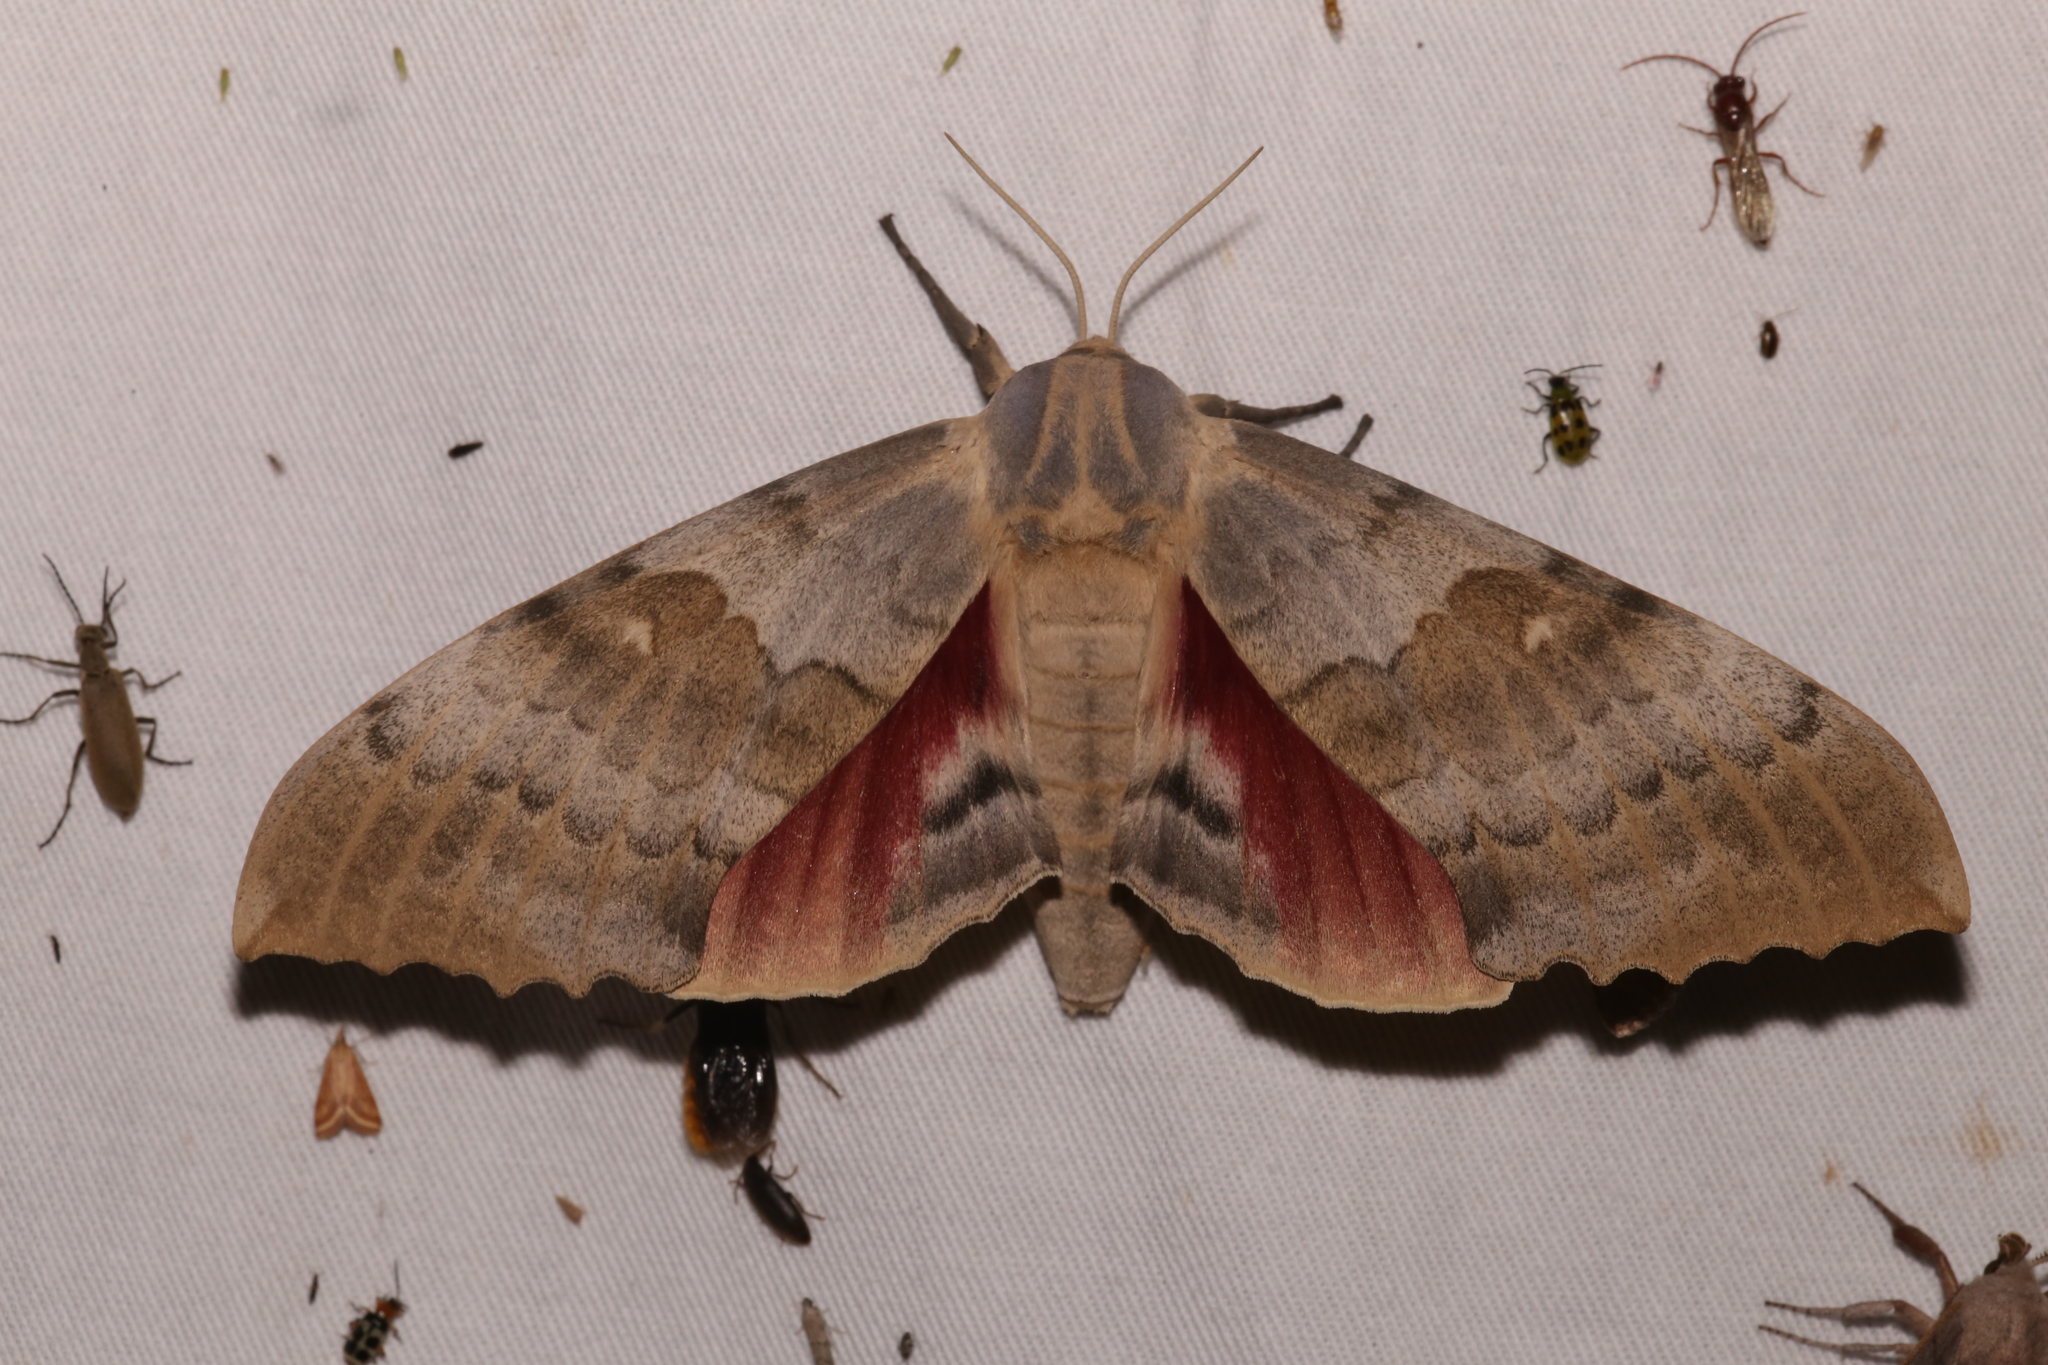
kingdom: Animalia
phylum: Arthropoda
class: Insecta
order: Lepidoptera
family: Sphingidae
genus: Pachysphinx
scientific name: Pachysphinx occidentalis
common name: Western poplar sphinx
